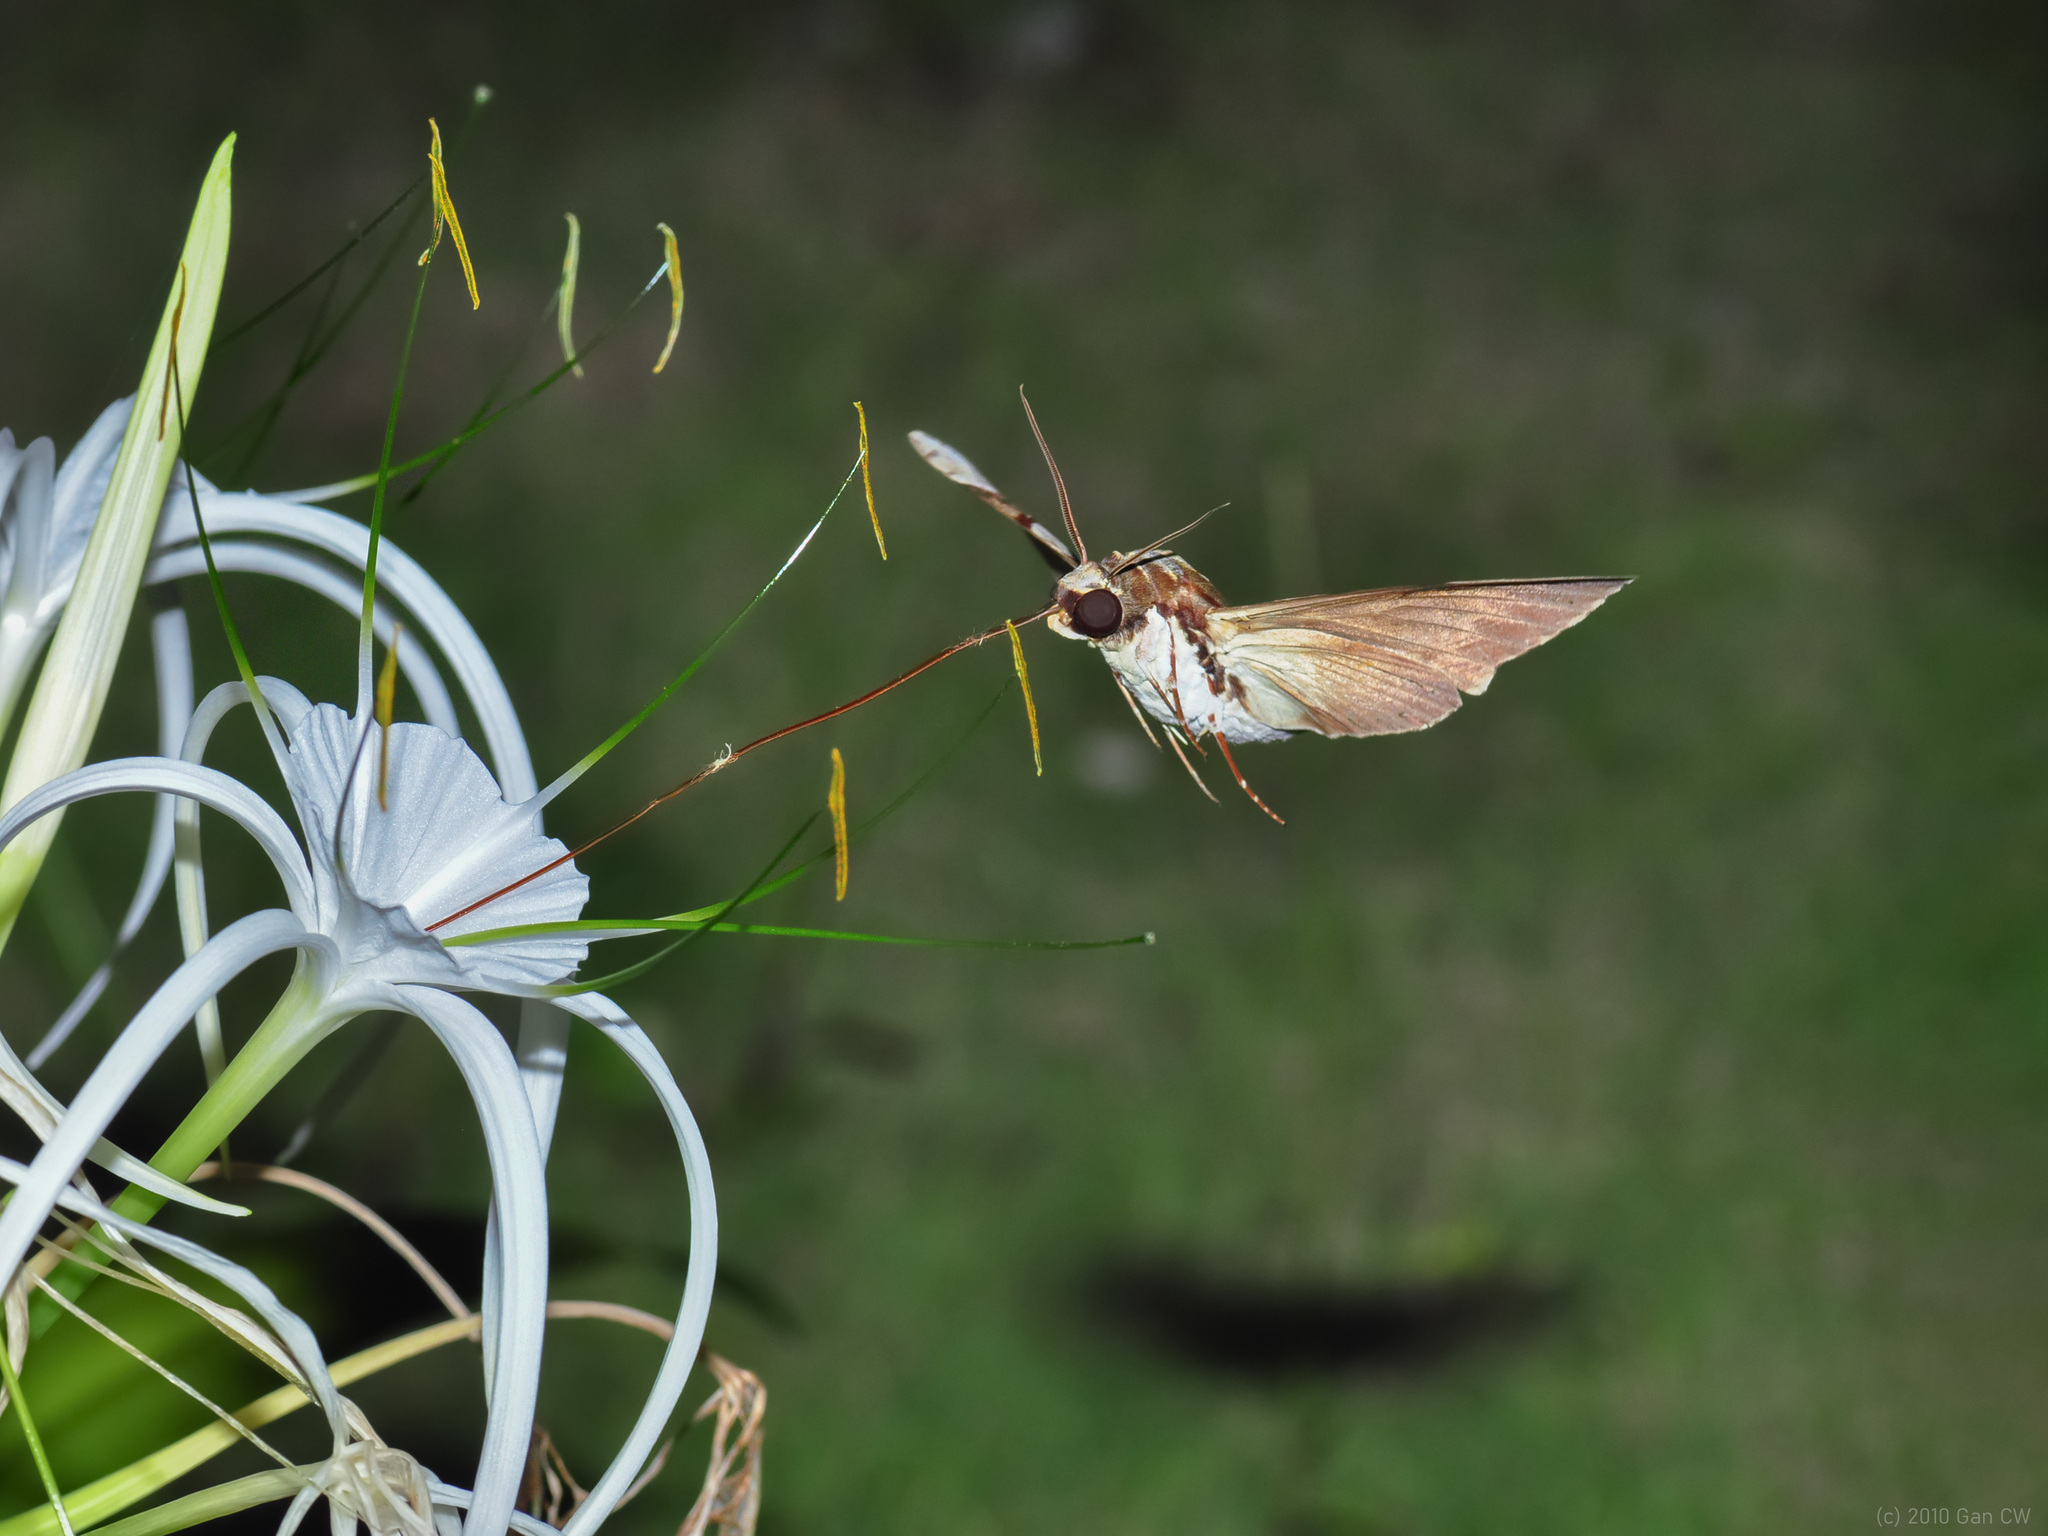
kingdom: Animalia
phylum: Arthropoda
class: Insecta
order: Lepidoptera
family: Sphingidae
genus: Megacorma
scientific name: Megacorma obliqua
